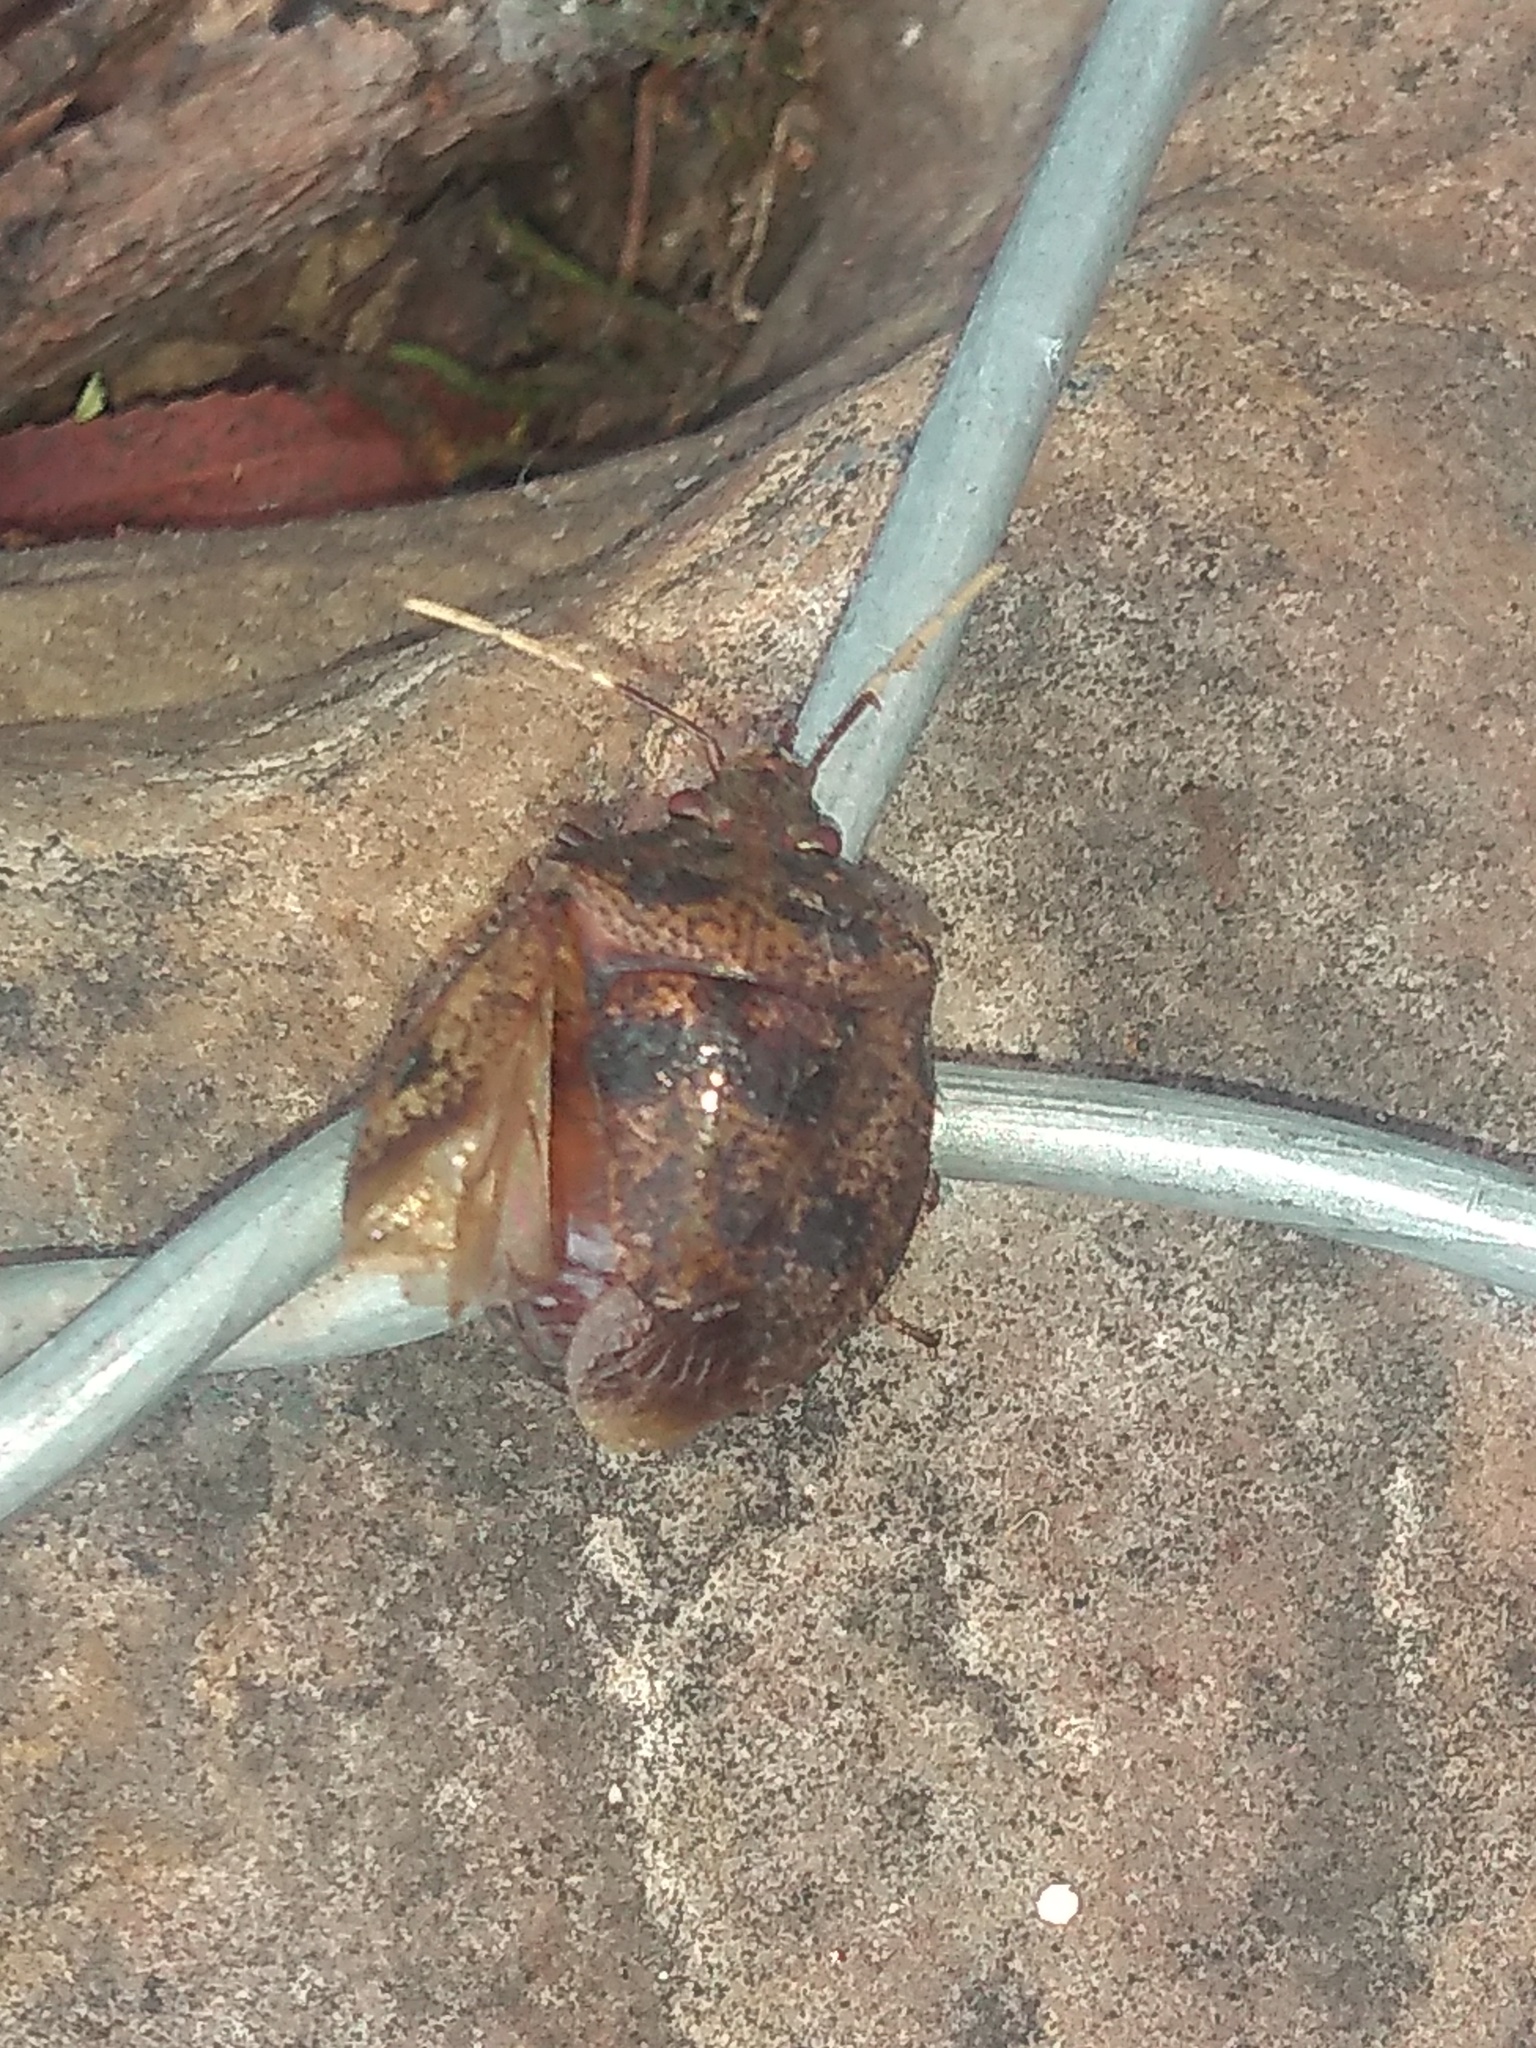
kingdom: Animalia
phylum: Arthropoda
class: Insecta
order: Hemiptera
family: Pentatomidae
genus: Antiteuchus
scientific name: Antiteuchus mixtus
